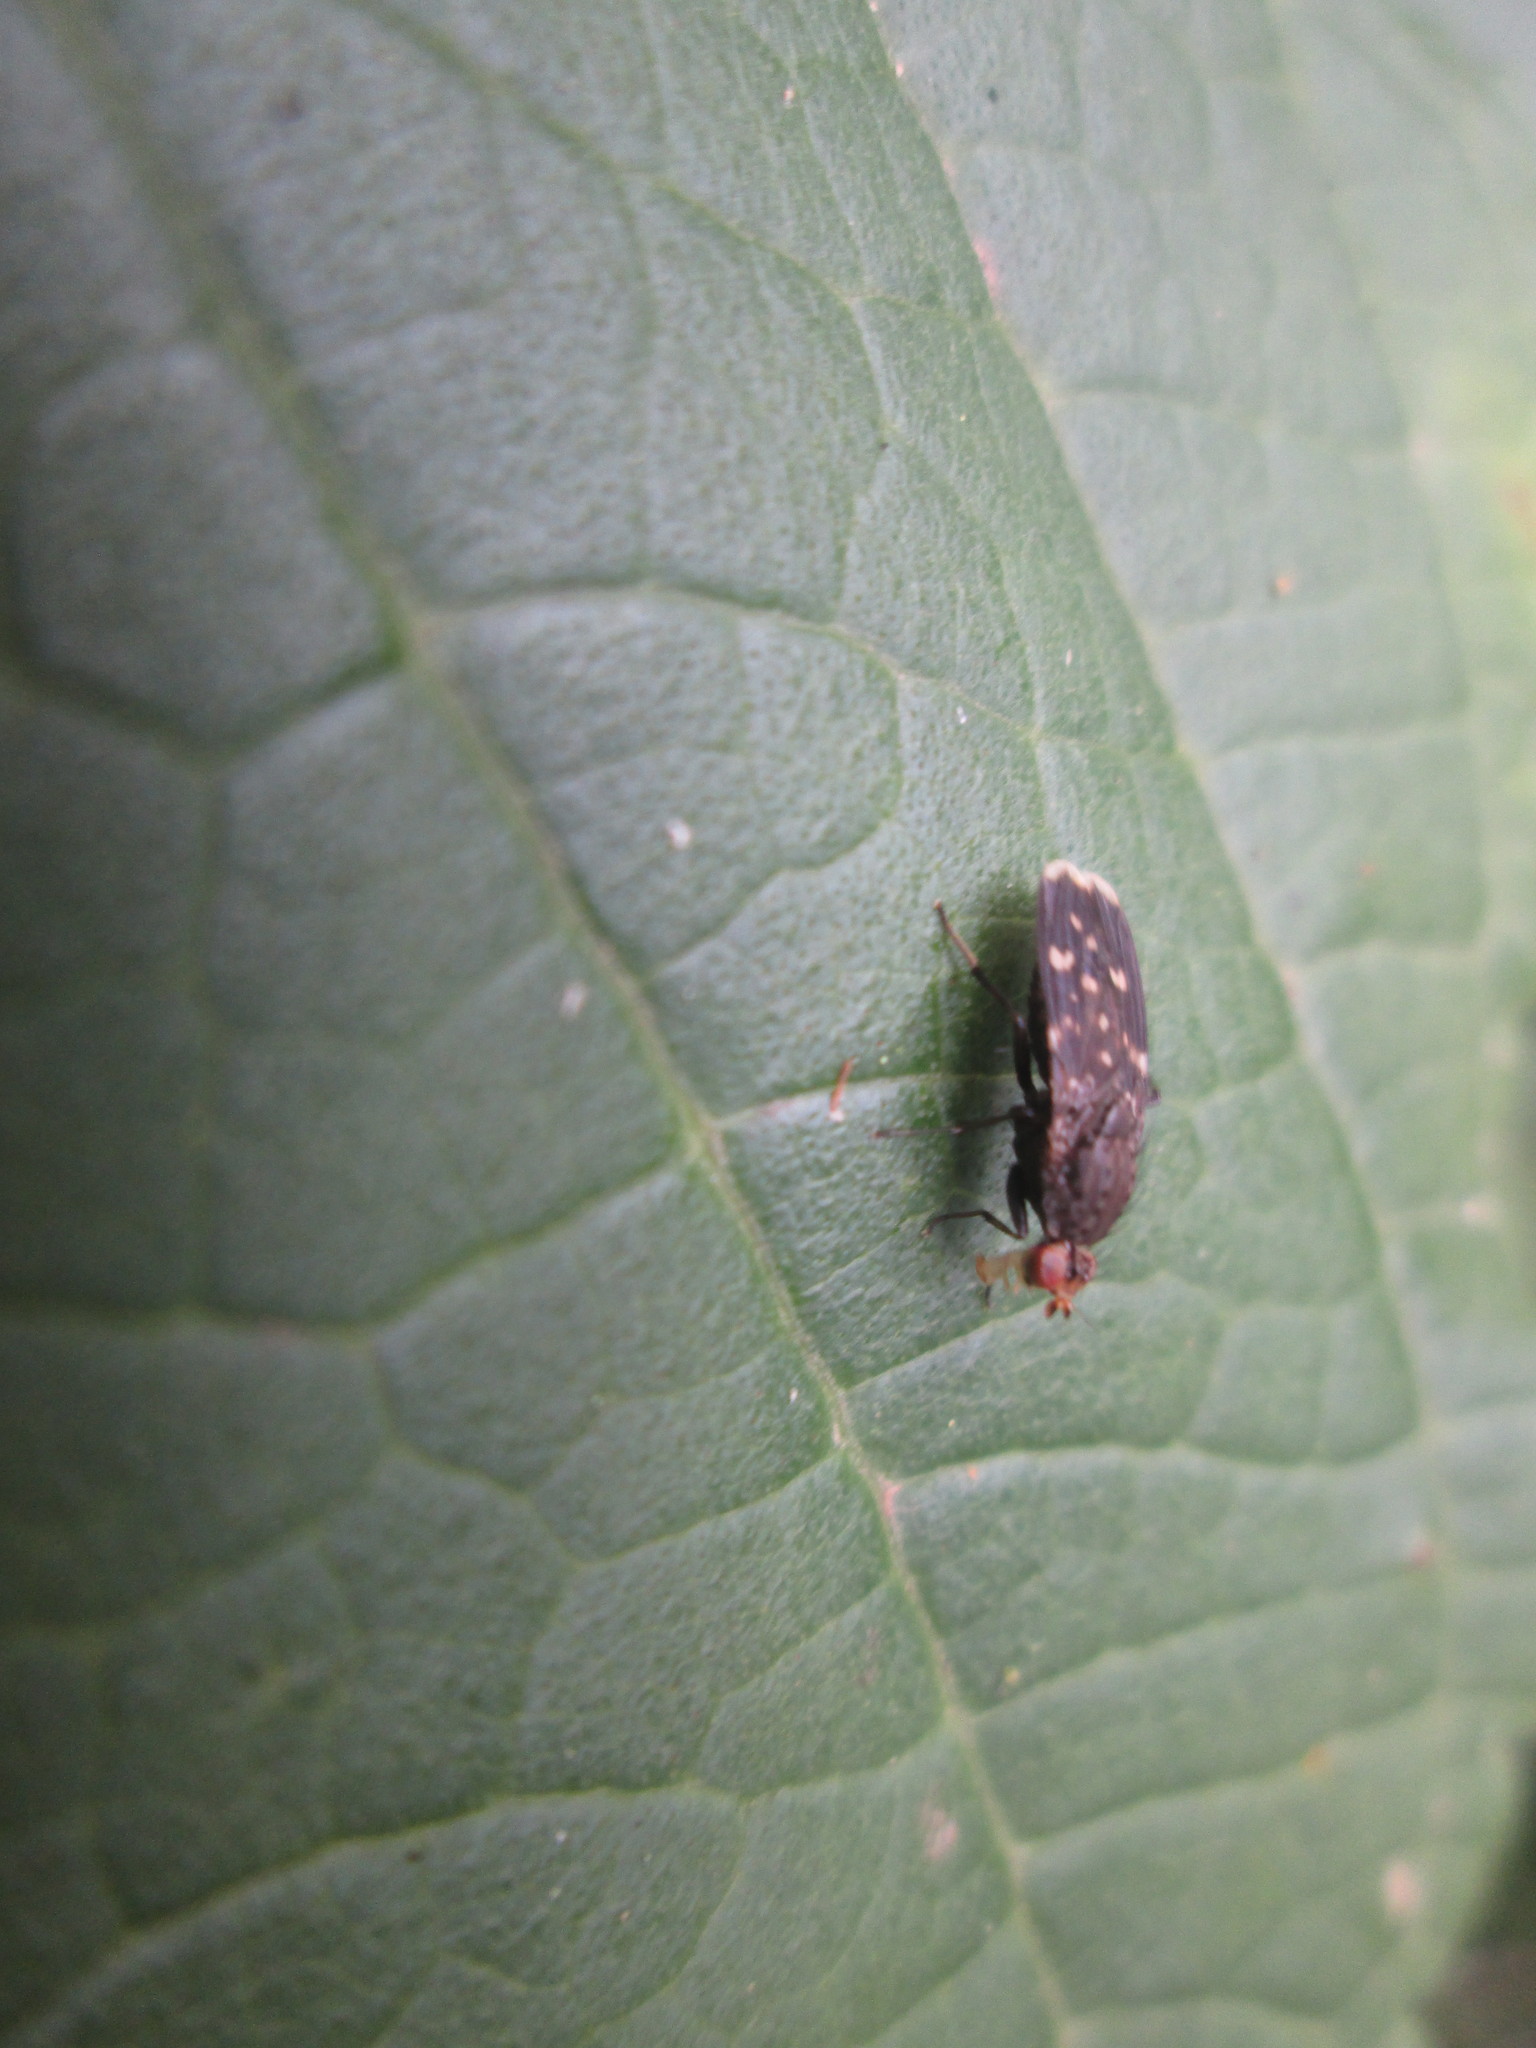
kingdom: Animalia
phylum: Arthropoda
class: Insecta
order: Diptera
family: Heleomyzidae
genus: Suillia
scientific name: Suillia picta
